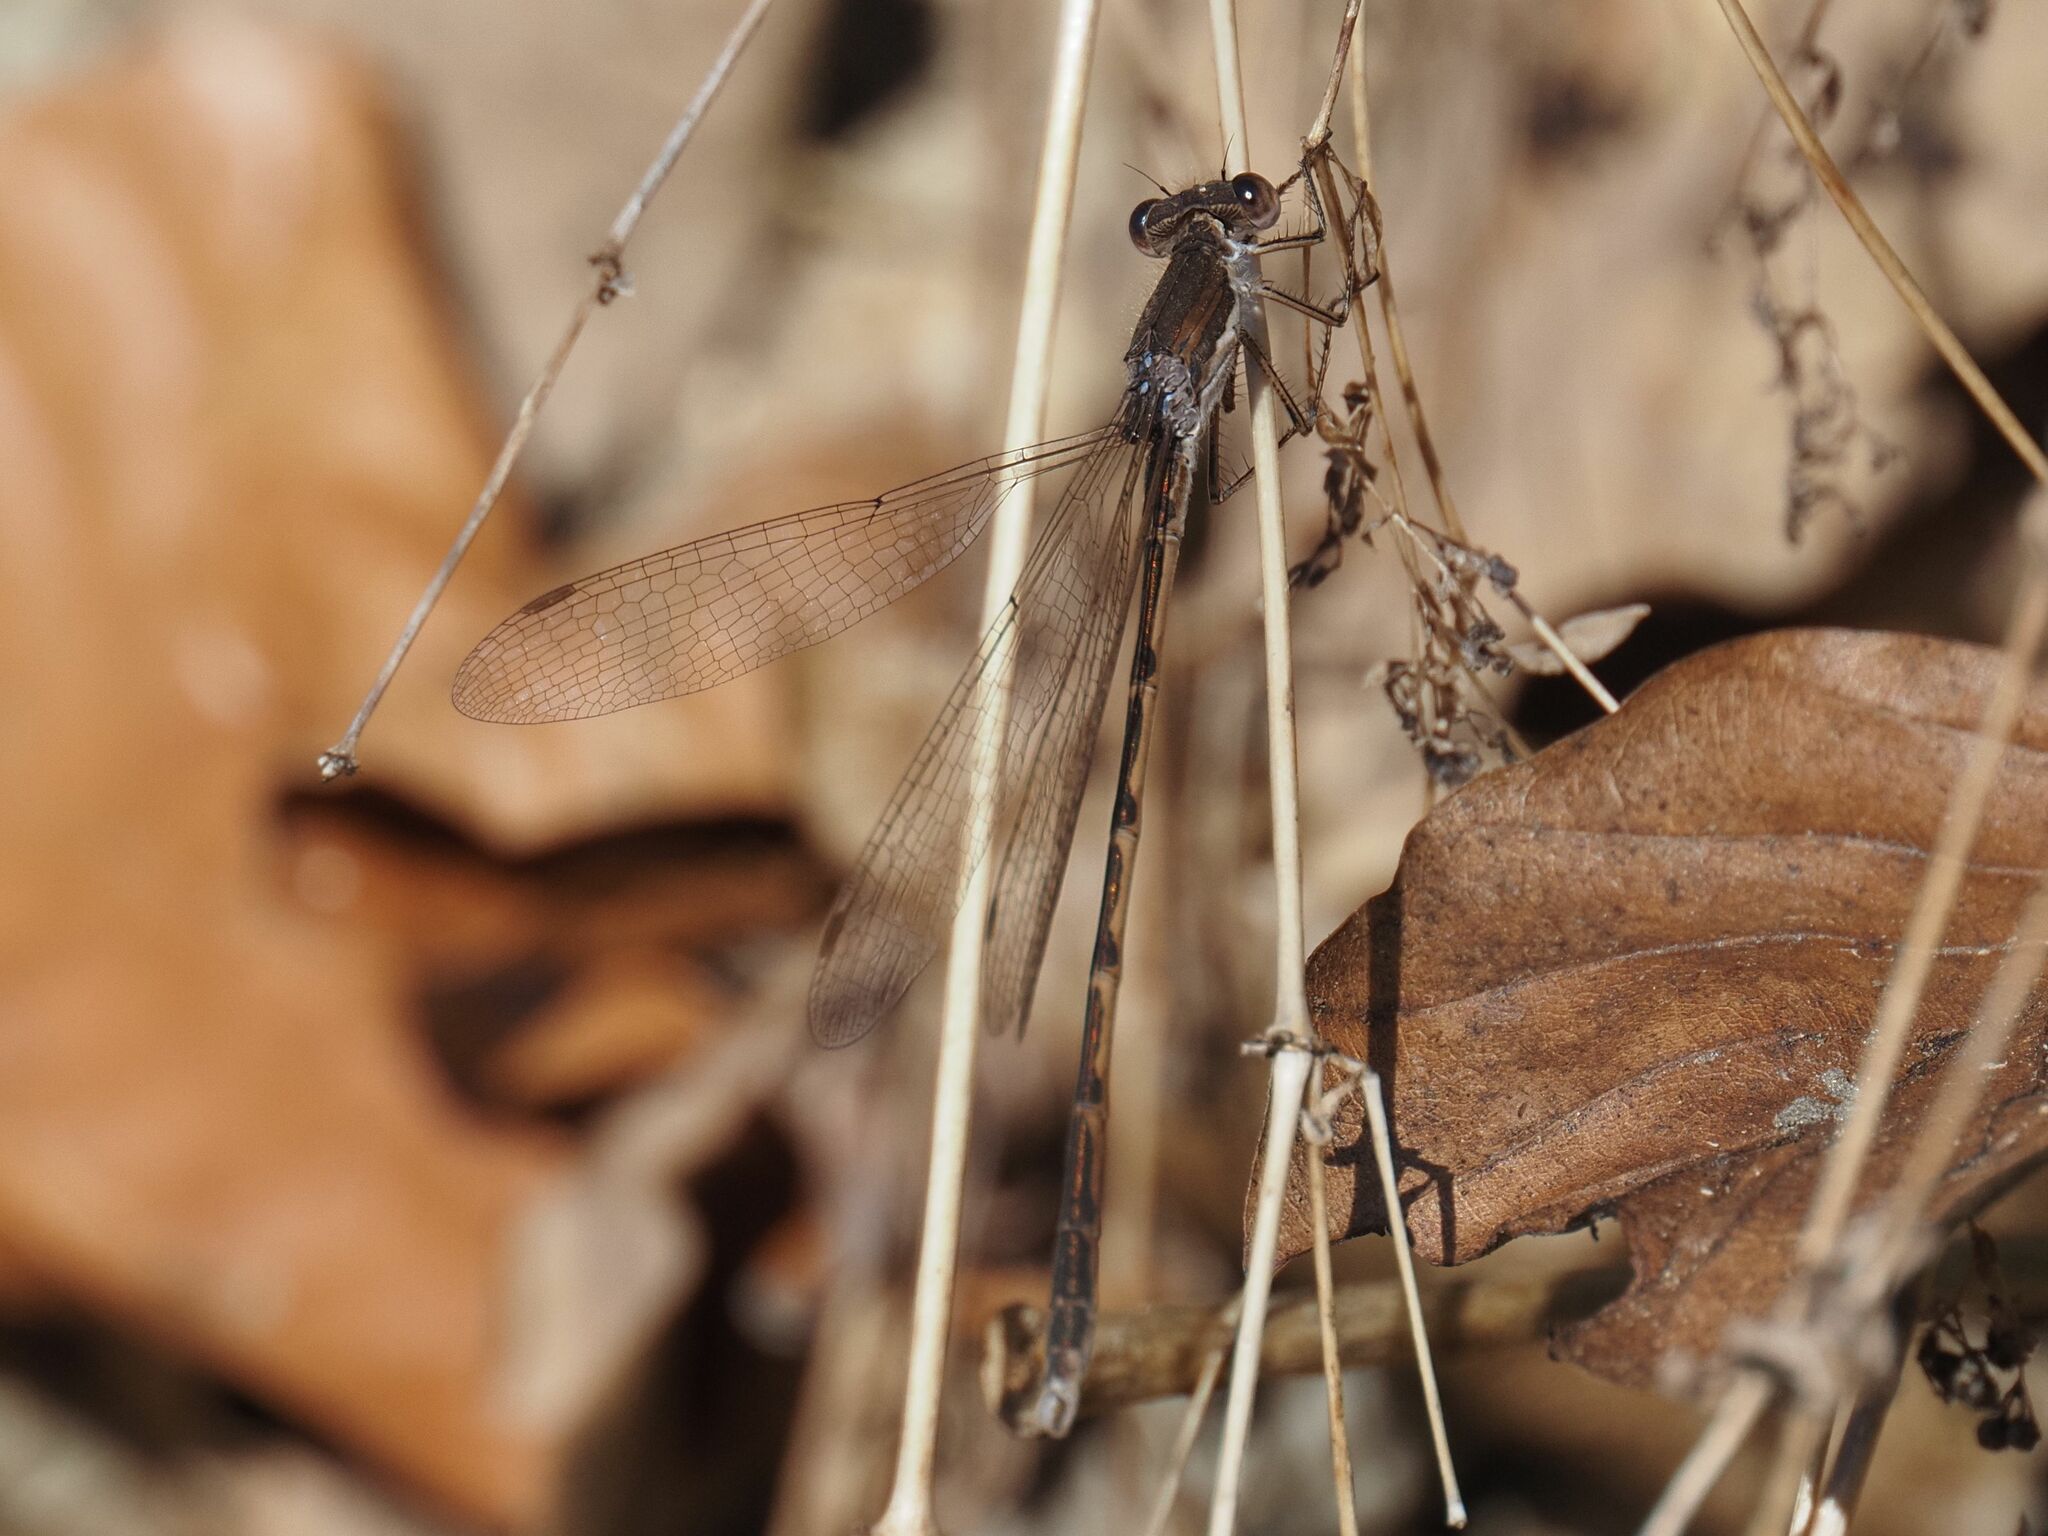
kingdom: Animalia
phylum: Arthropoda
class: Insecta
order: Odonata
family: Lestidae
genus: Sympecma
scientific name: Sympecma fusca
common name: Common winter damsel
